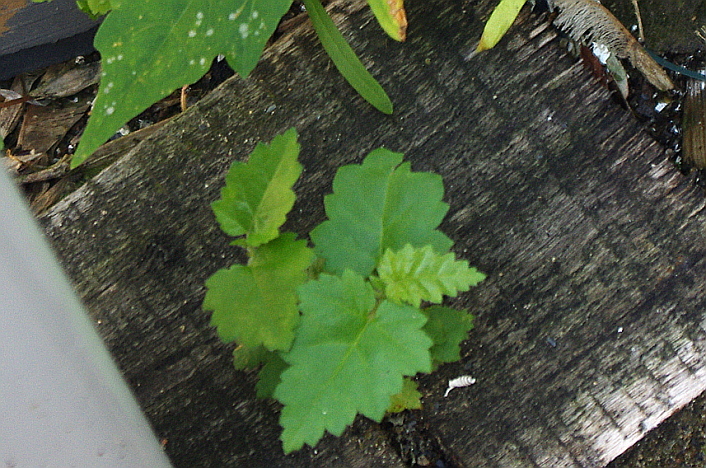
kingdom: Plantae
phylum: Tracheophyta
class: Magnoliopsida
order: Fagales
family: Betulaceae
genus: Betula
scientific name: Betula
